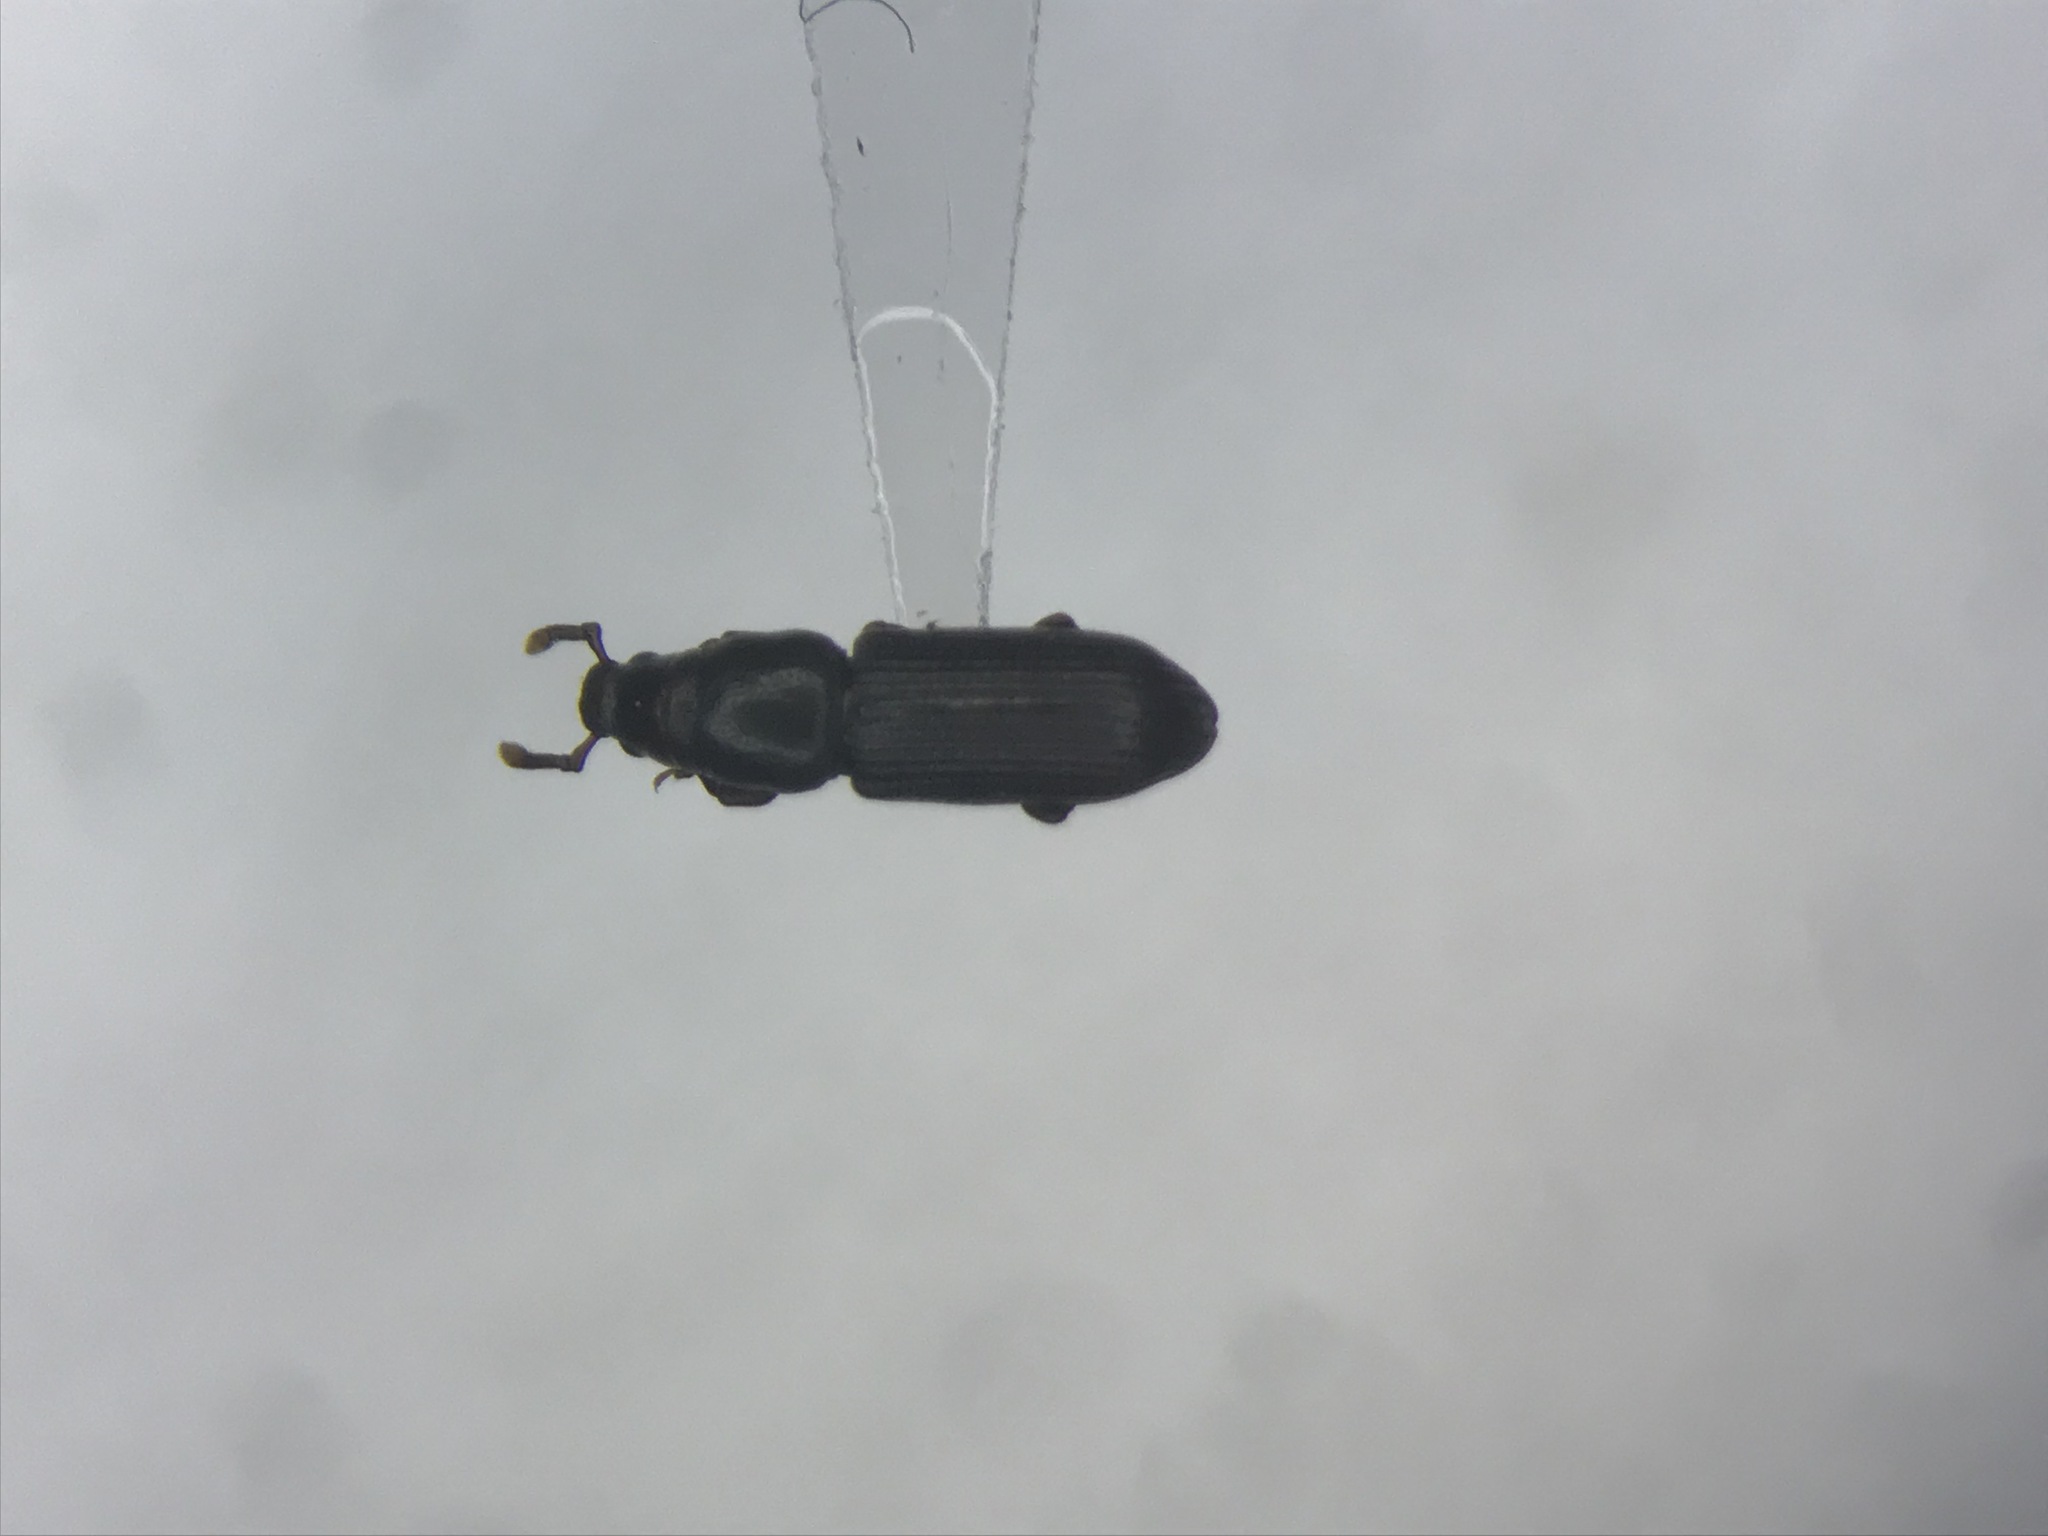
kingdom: Animalia
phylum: Arthropoda
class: Insecta
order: Coleoptera
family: Curculionidae
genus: Rhyncolus
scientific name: Rhyncolus macrops
